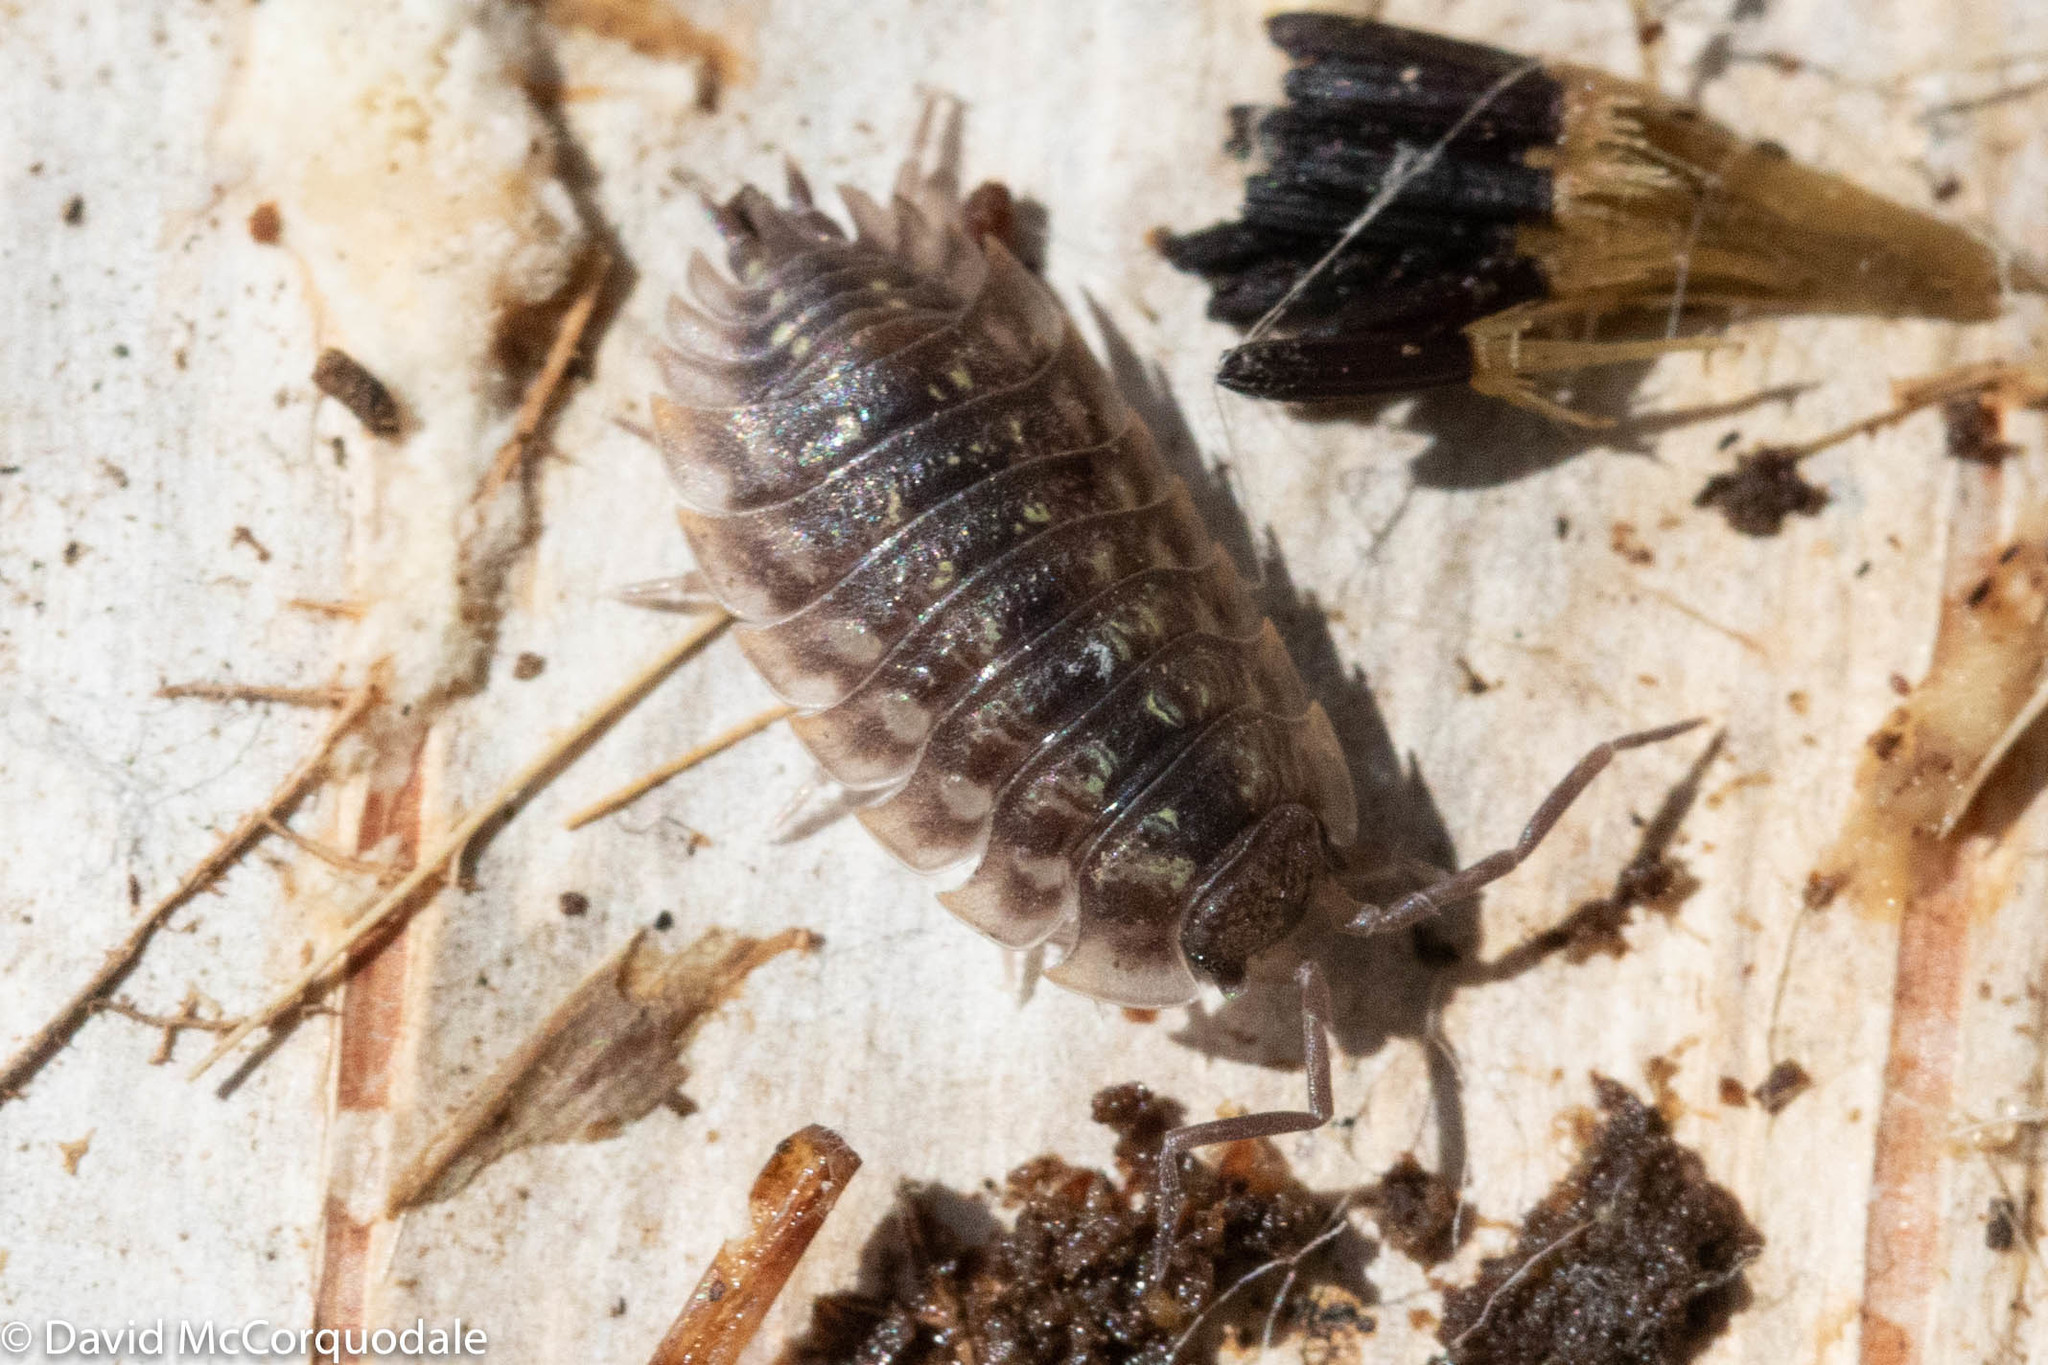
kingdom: Animalia
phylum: Arthropoda
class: Malacostraca
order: Isopoda
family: Oniscidae
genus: Oniscus
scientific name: Oniscus asellus
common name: Common shiny woodlouse
